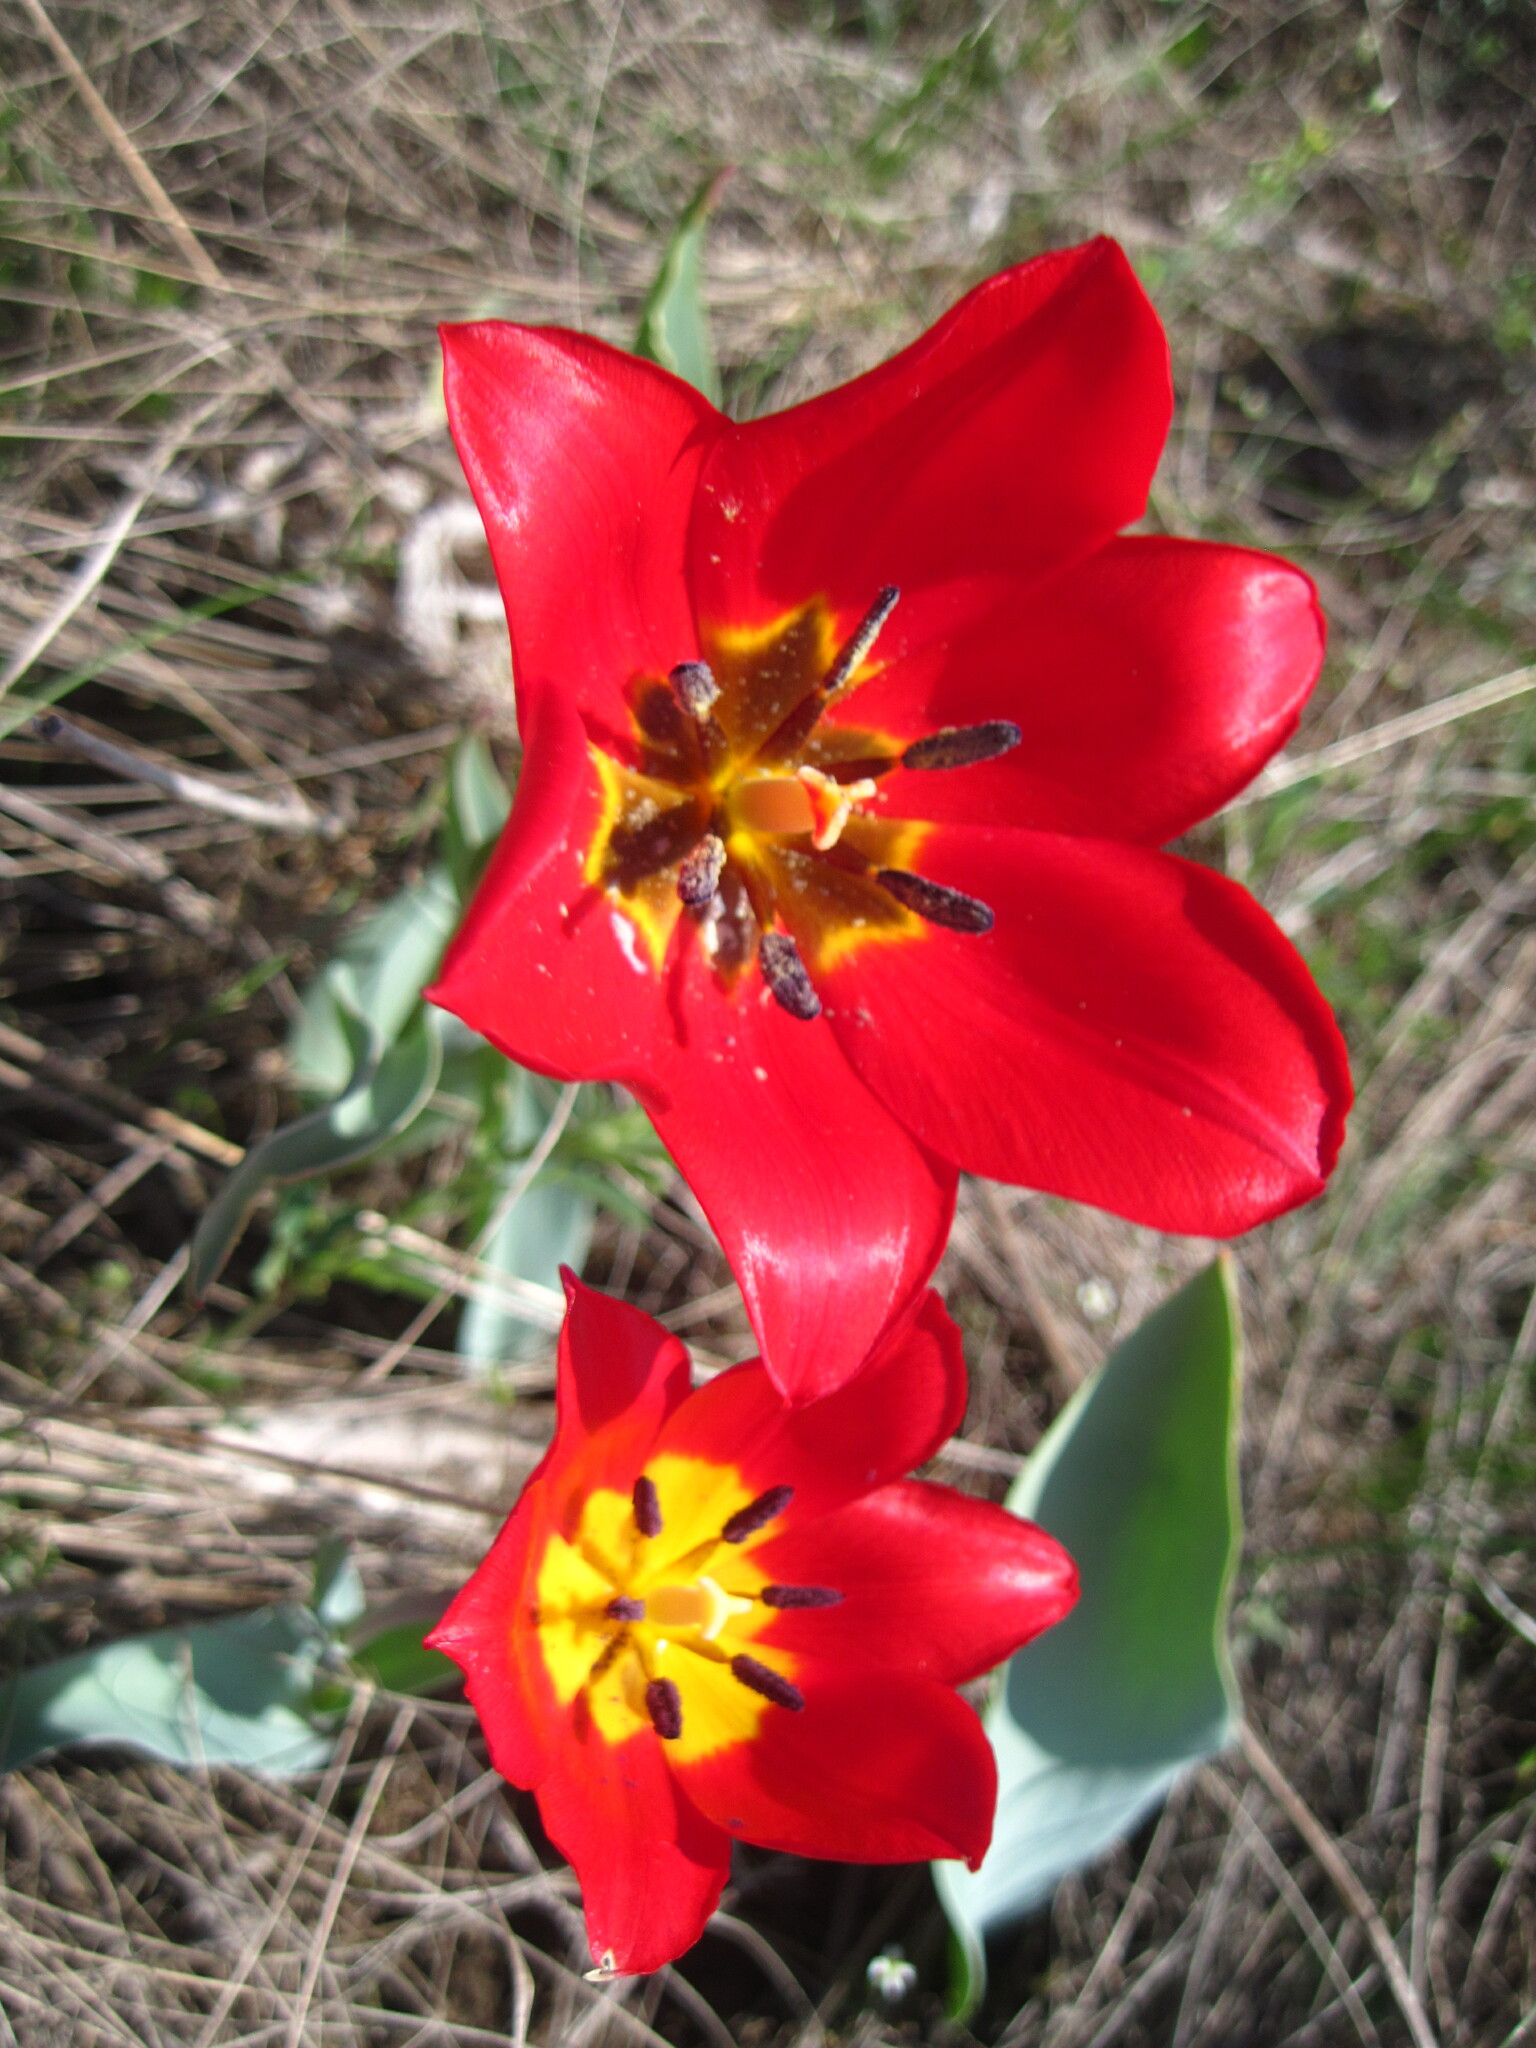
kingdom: Plantae
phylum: Tracheophyta
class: Liliopsida
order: Liliales
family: Liliaceae
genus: Tulipa
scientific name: Tulipa suaveolens
